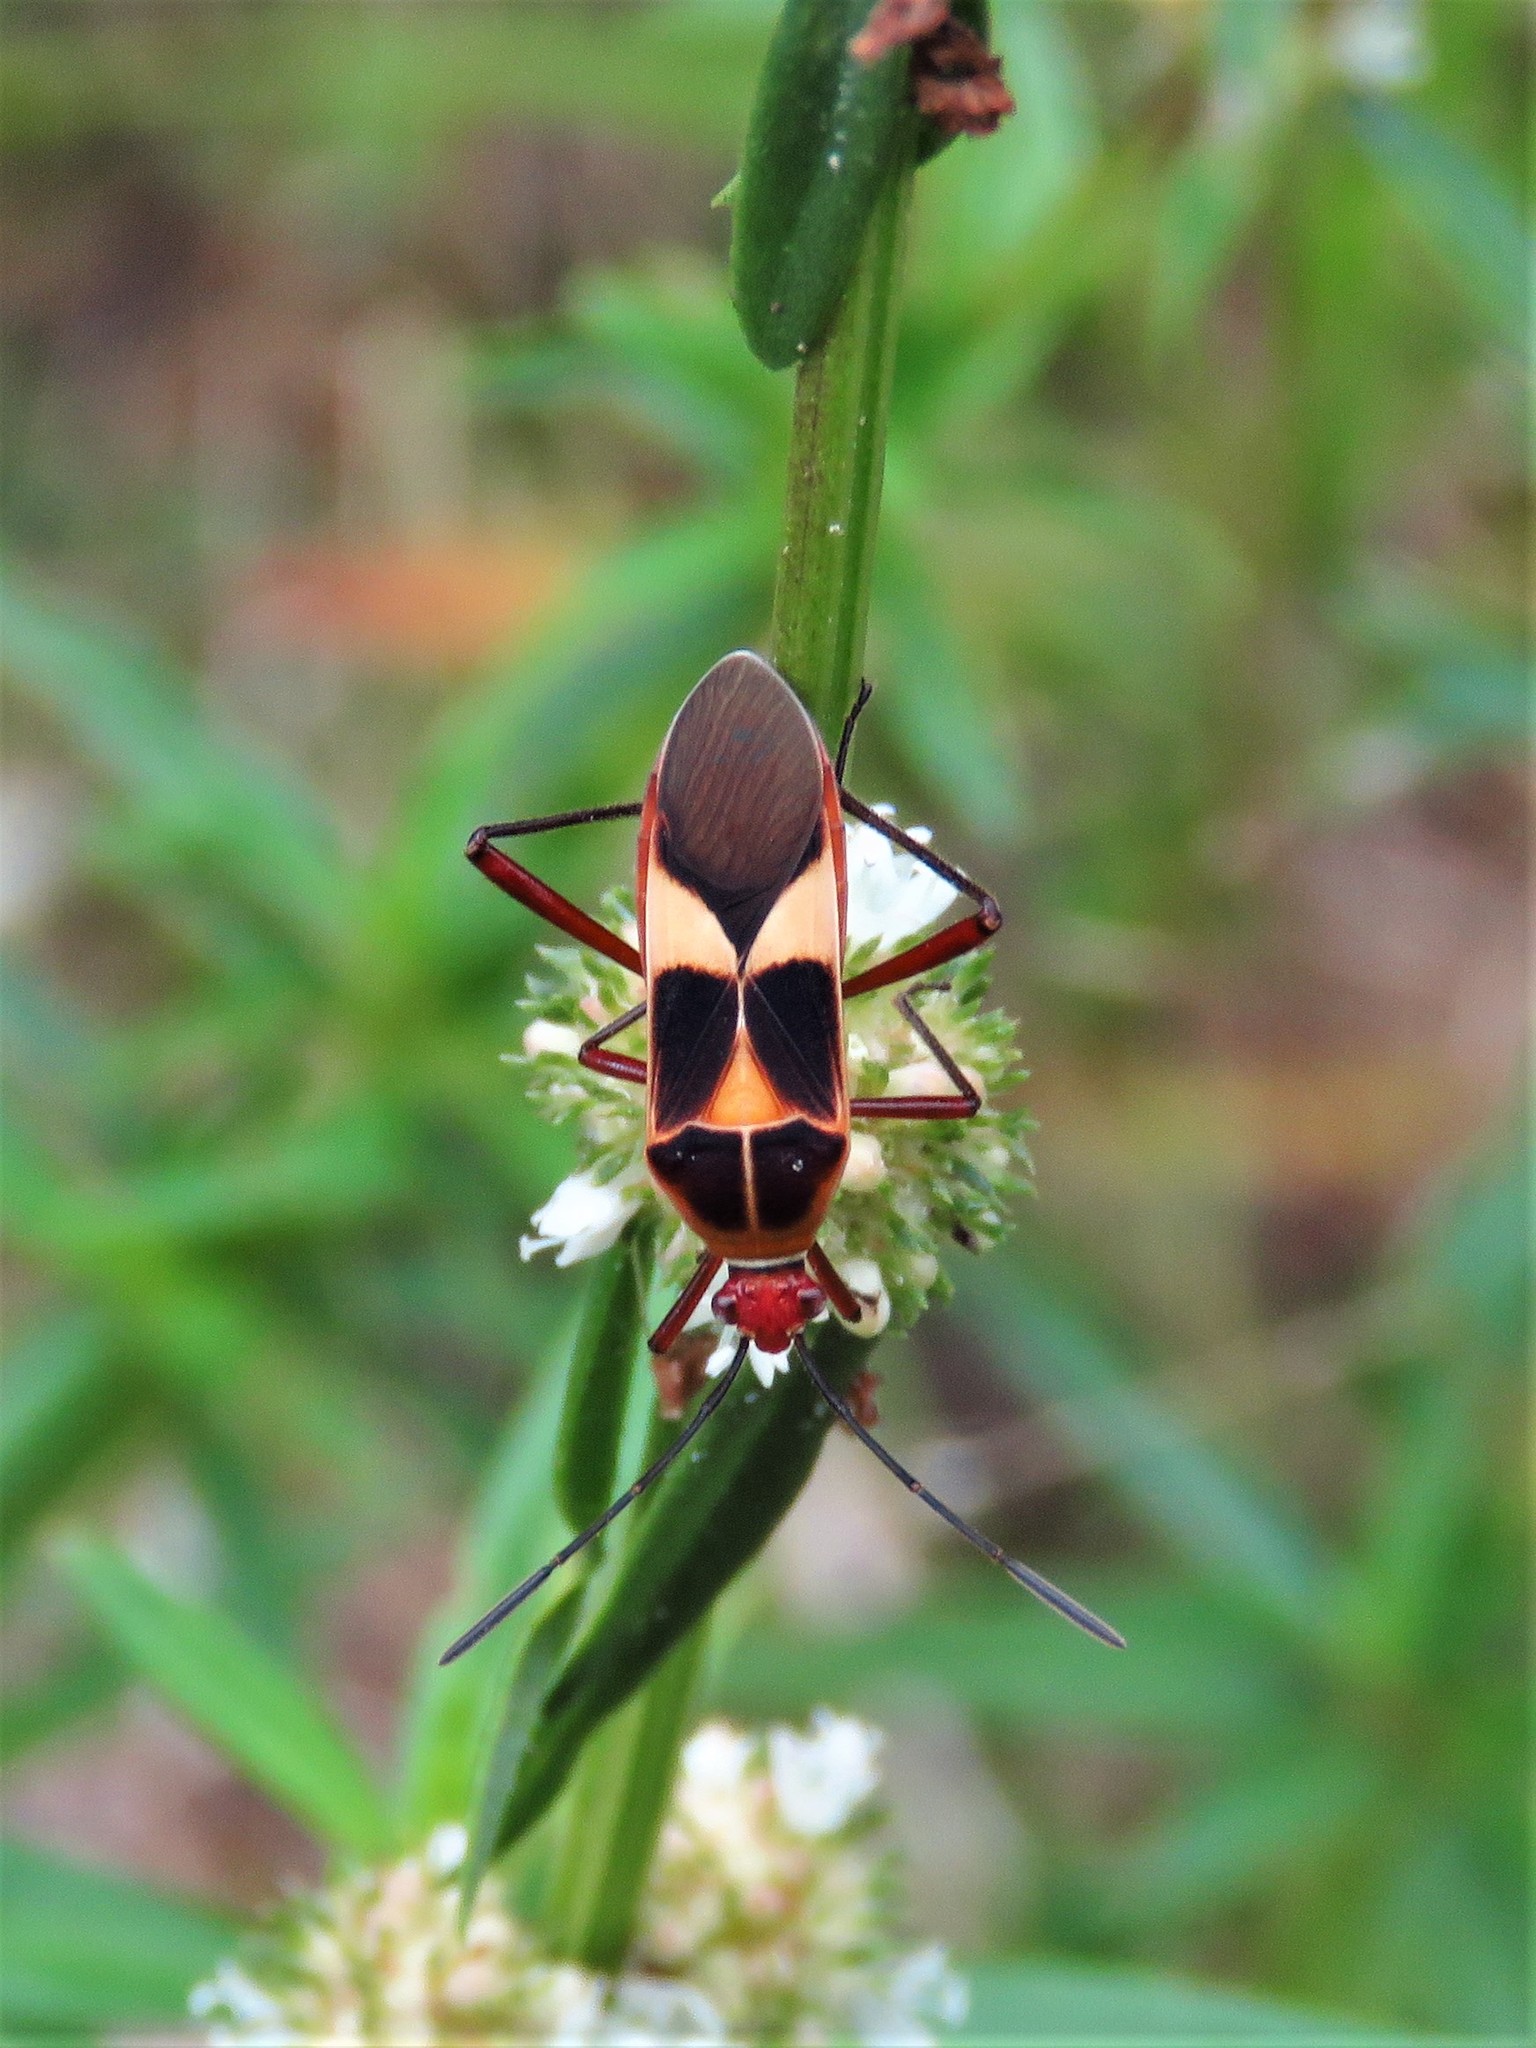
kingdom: Animalia
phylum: Arthropoda
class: Insecta
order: Hemiptera
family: Coreidae
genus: Hypselonotus
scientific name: Hypselonotus interruptus
